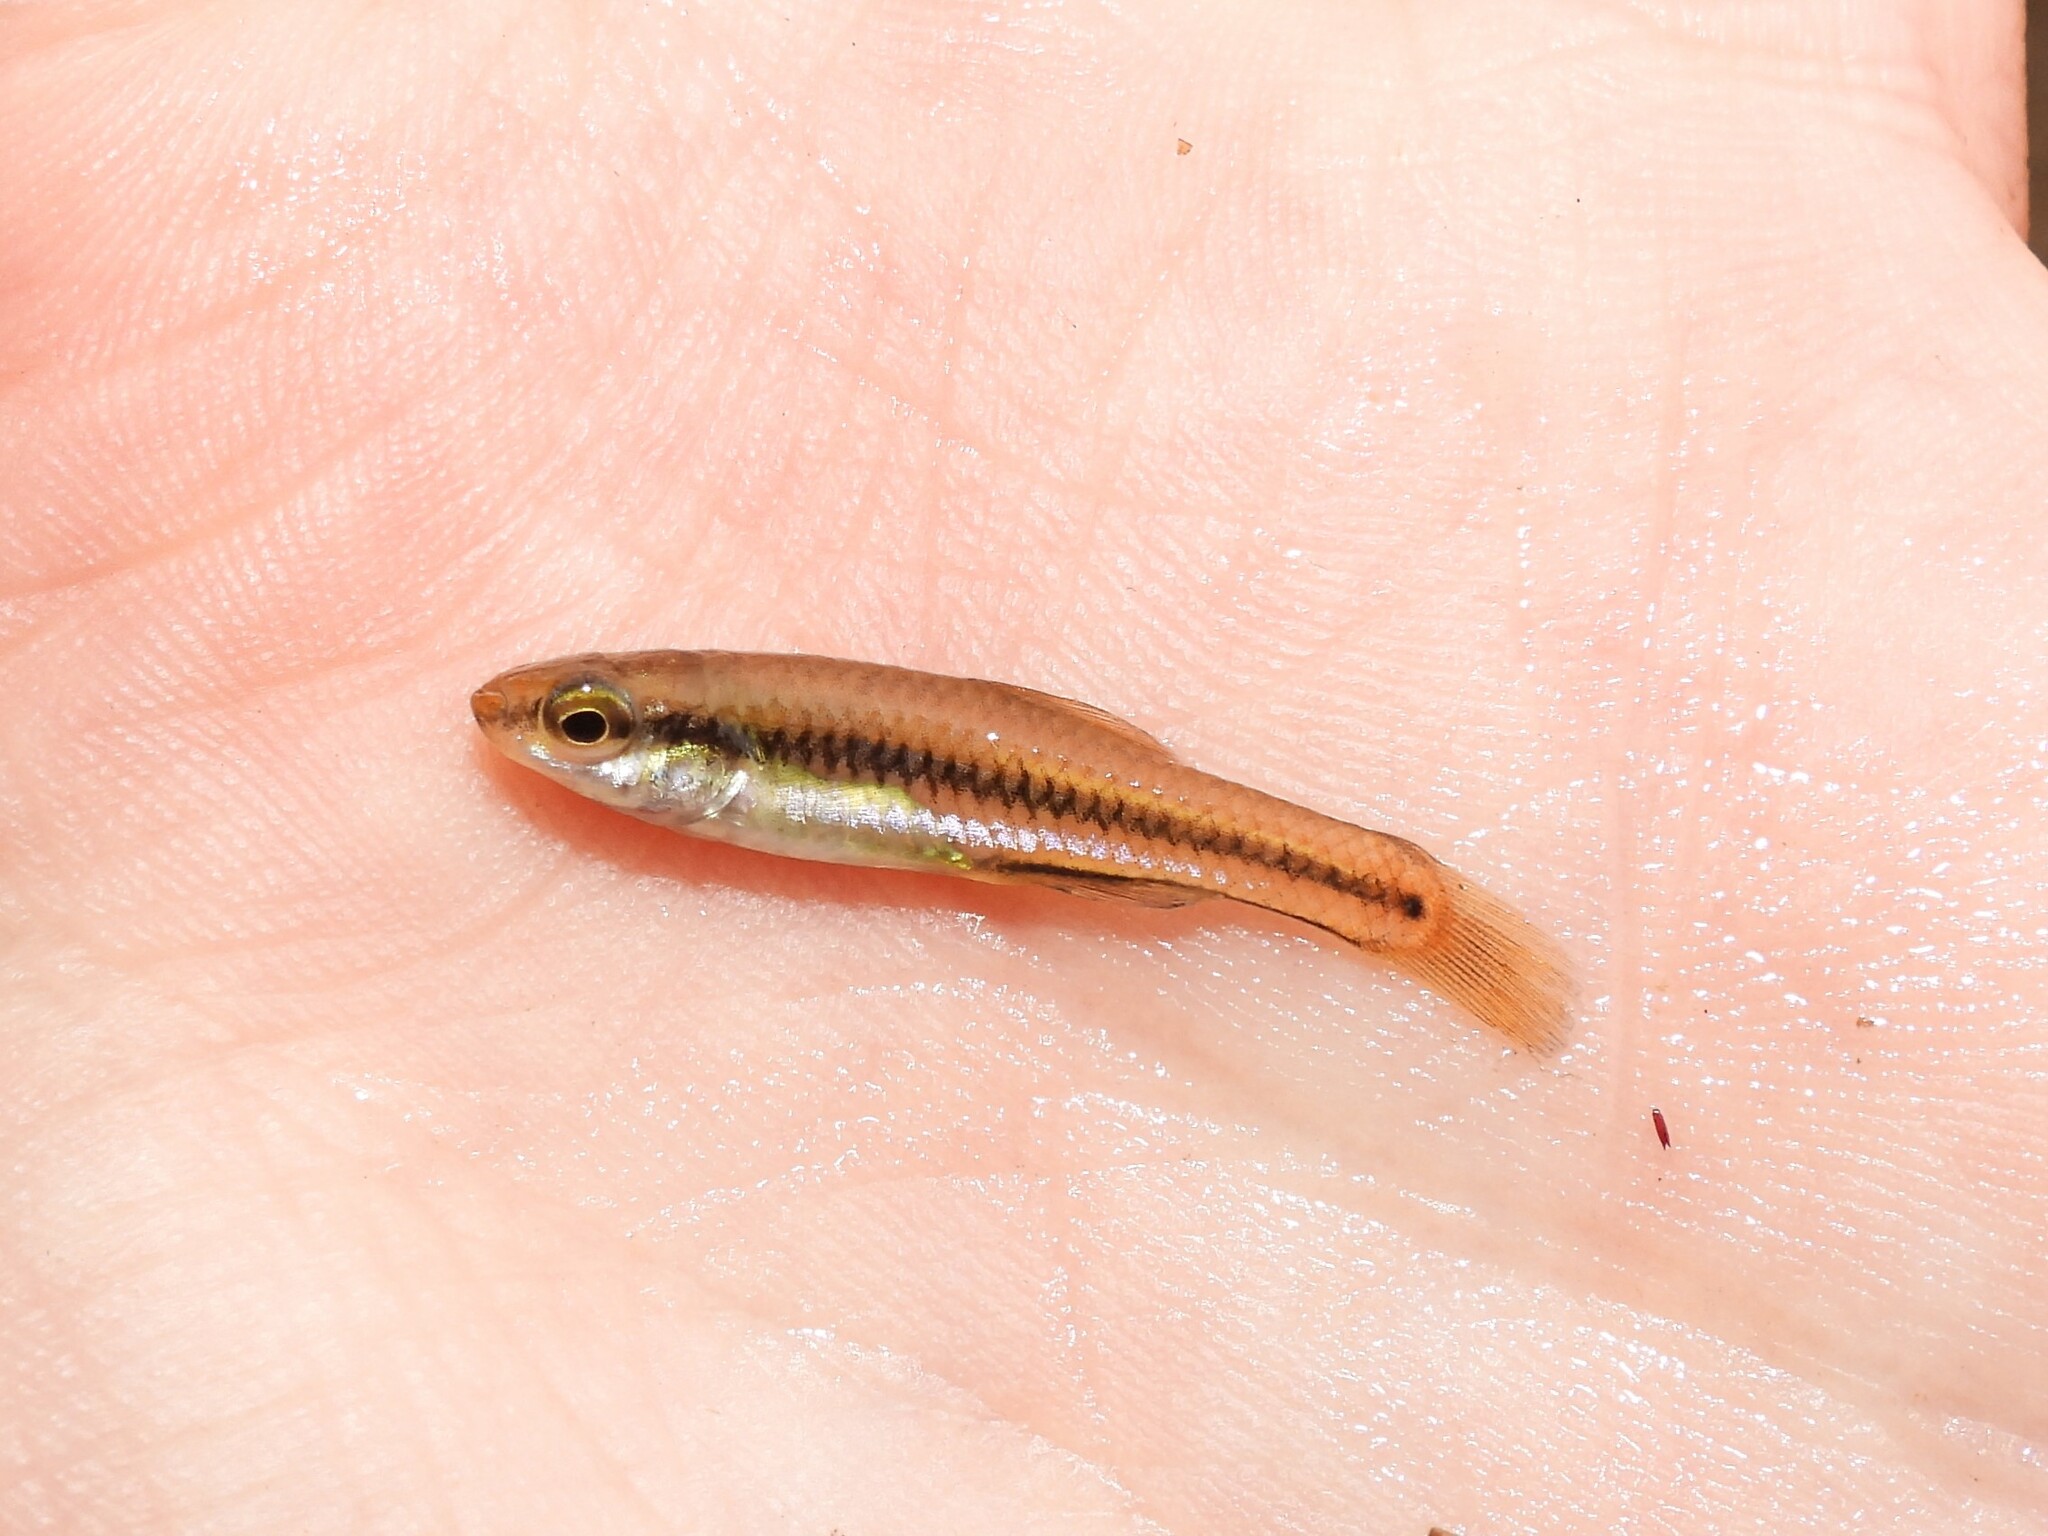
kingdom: Animalia
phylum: Chordata
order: Cyprinodontiformes
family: Fundulidae
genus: Lucania
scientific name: Lucania goodei
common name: Bluefin killifish
